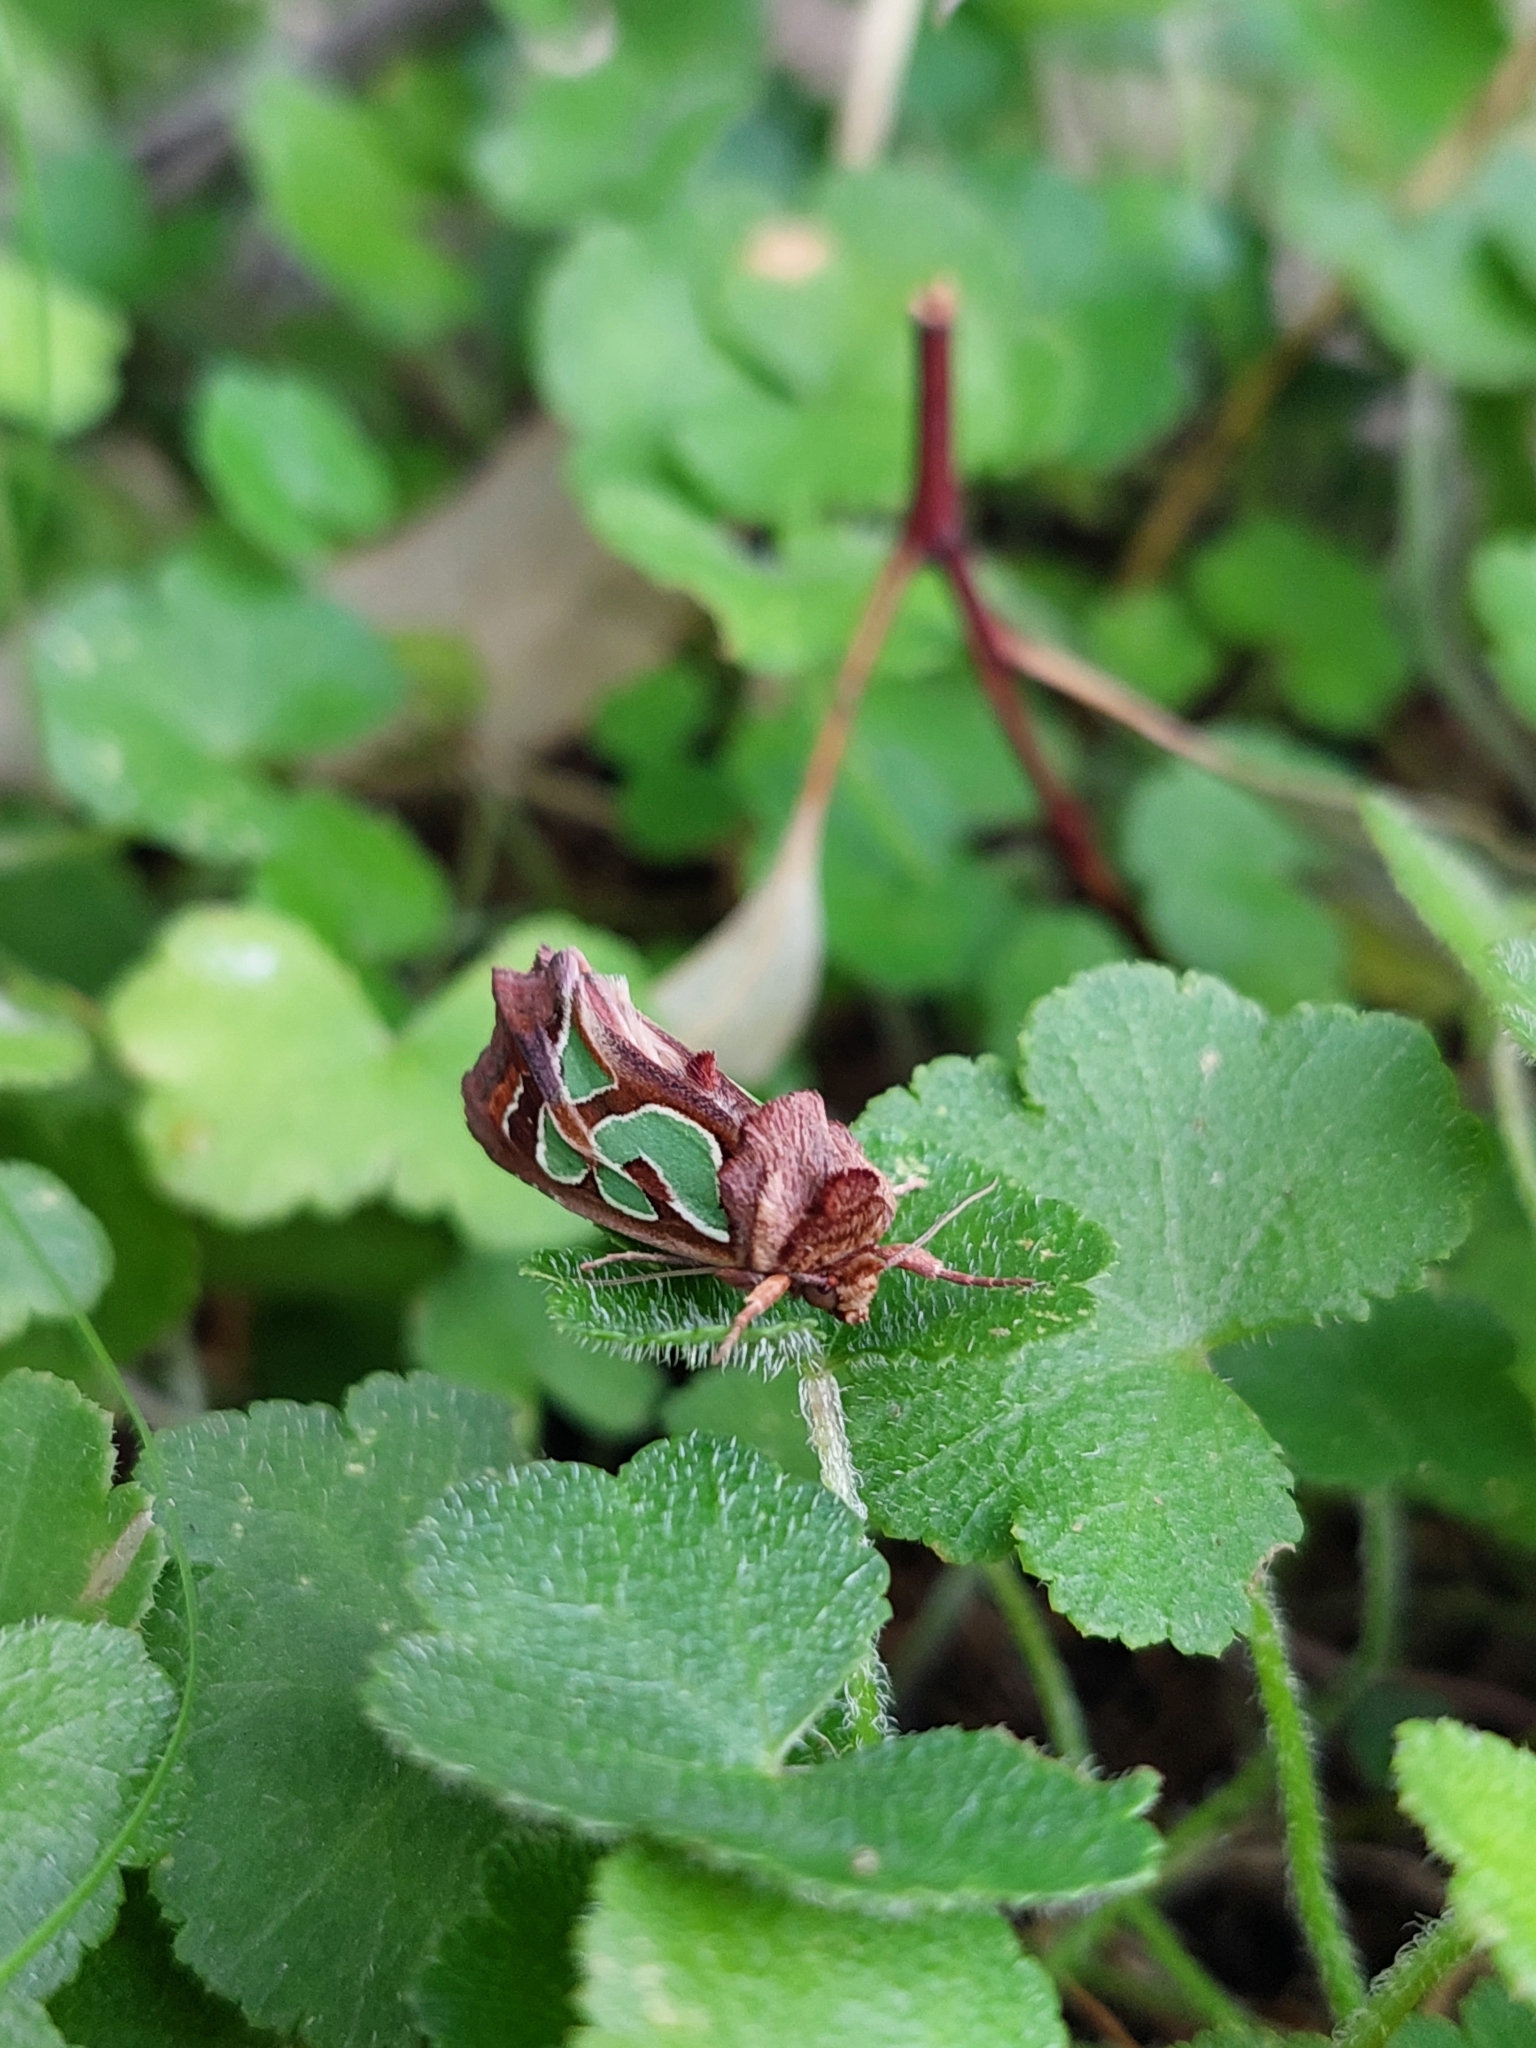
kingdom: Animalia
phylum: Arthropoda
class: Insecta
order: Lepidoptera
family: Noctuidae
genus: Cosmodes
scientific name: Cosmodes elegans
